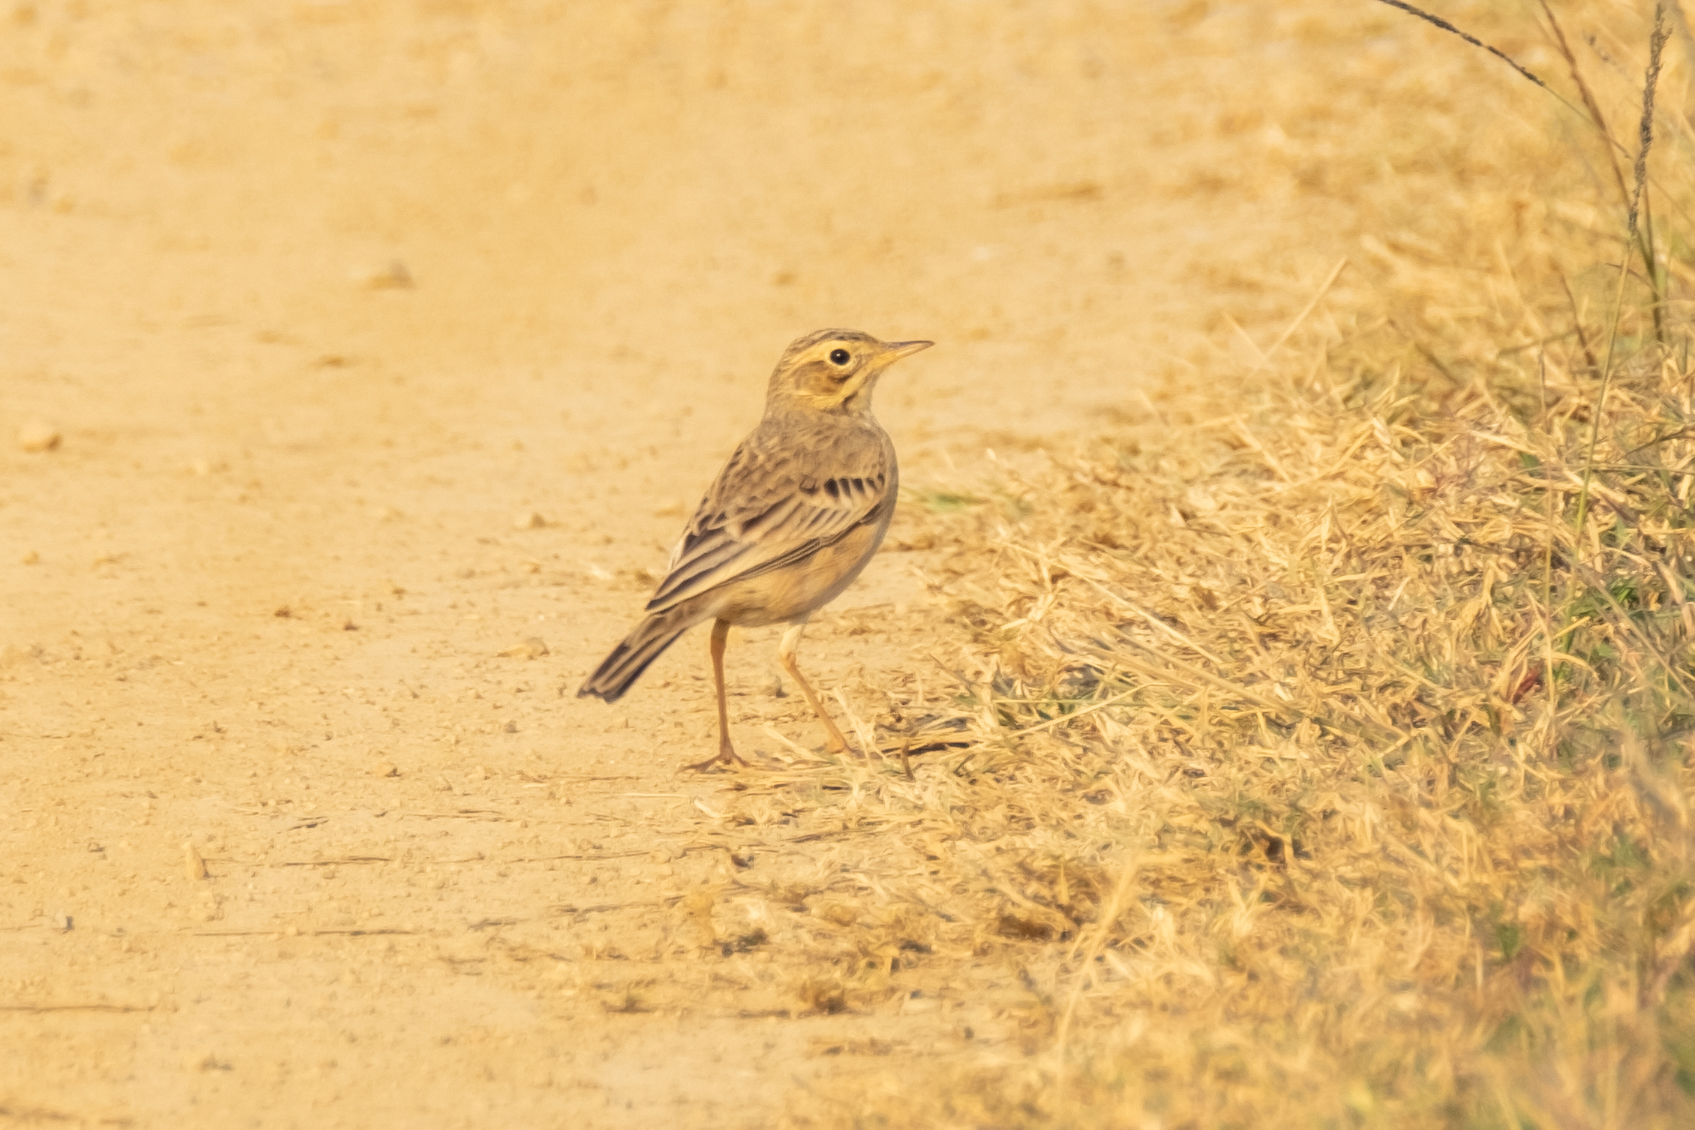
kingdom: Animalia
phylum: Chordata
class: Aves
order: Passeriformes
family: Motacillidae
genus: Anthus
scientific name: Anthus rufulus
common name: Paddyfield pipit
